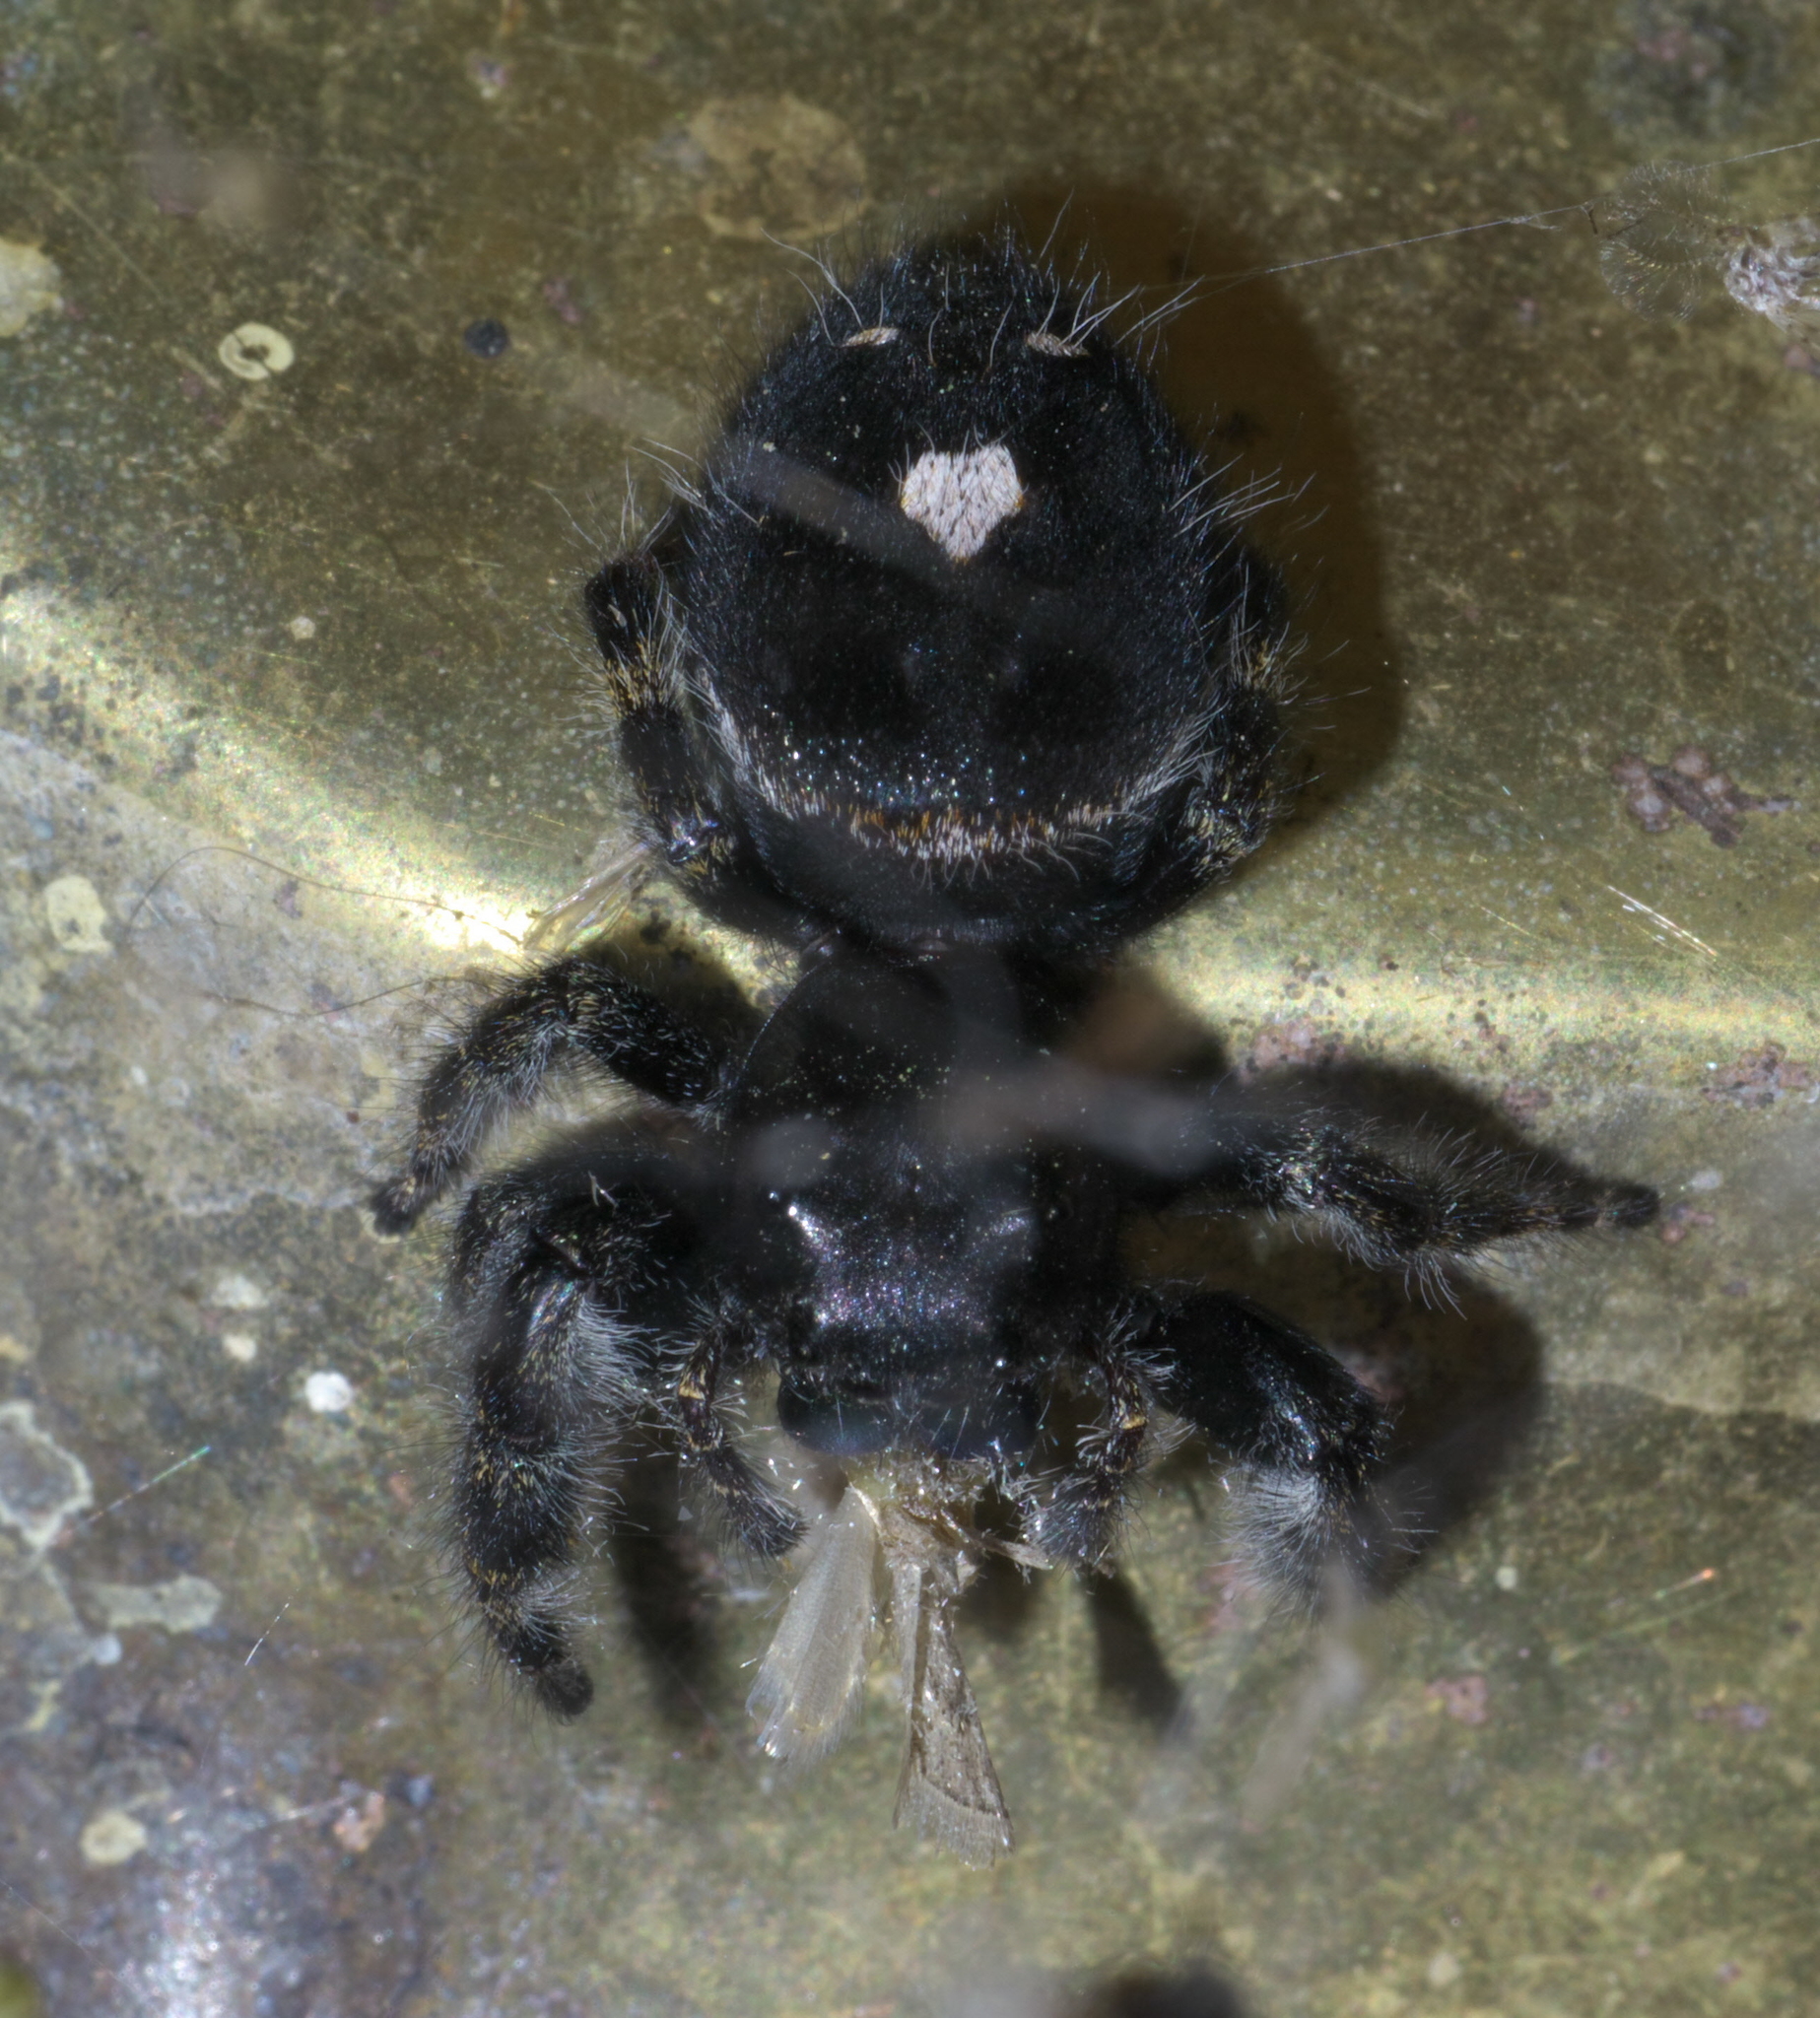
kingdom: Animalia
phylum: Arthropoda
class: Arachnida
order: Araneae
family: Salticidae
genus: Phidippus
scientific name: Phidippus audax
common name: Bold jumper
